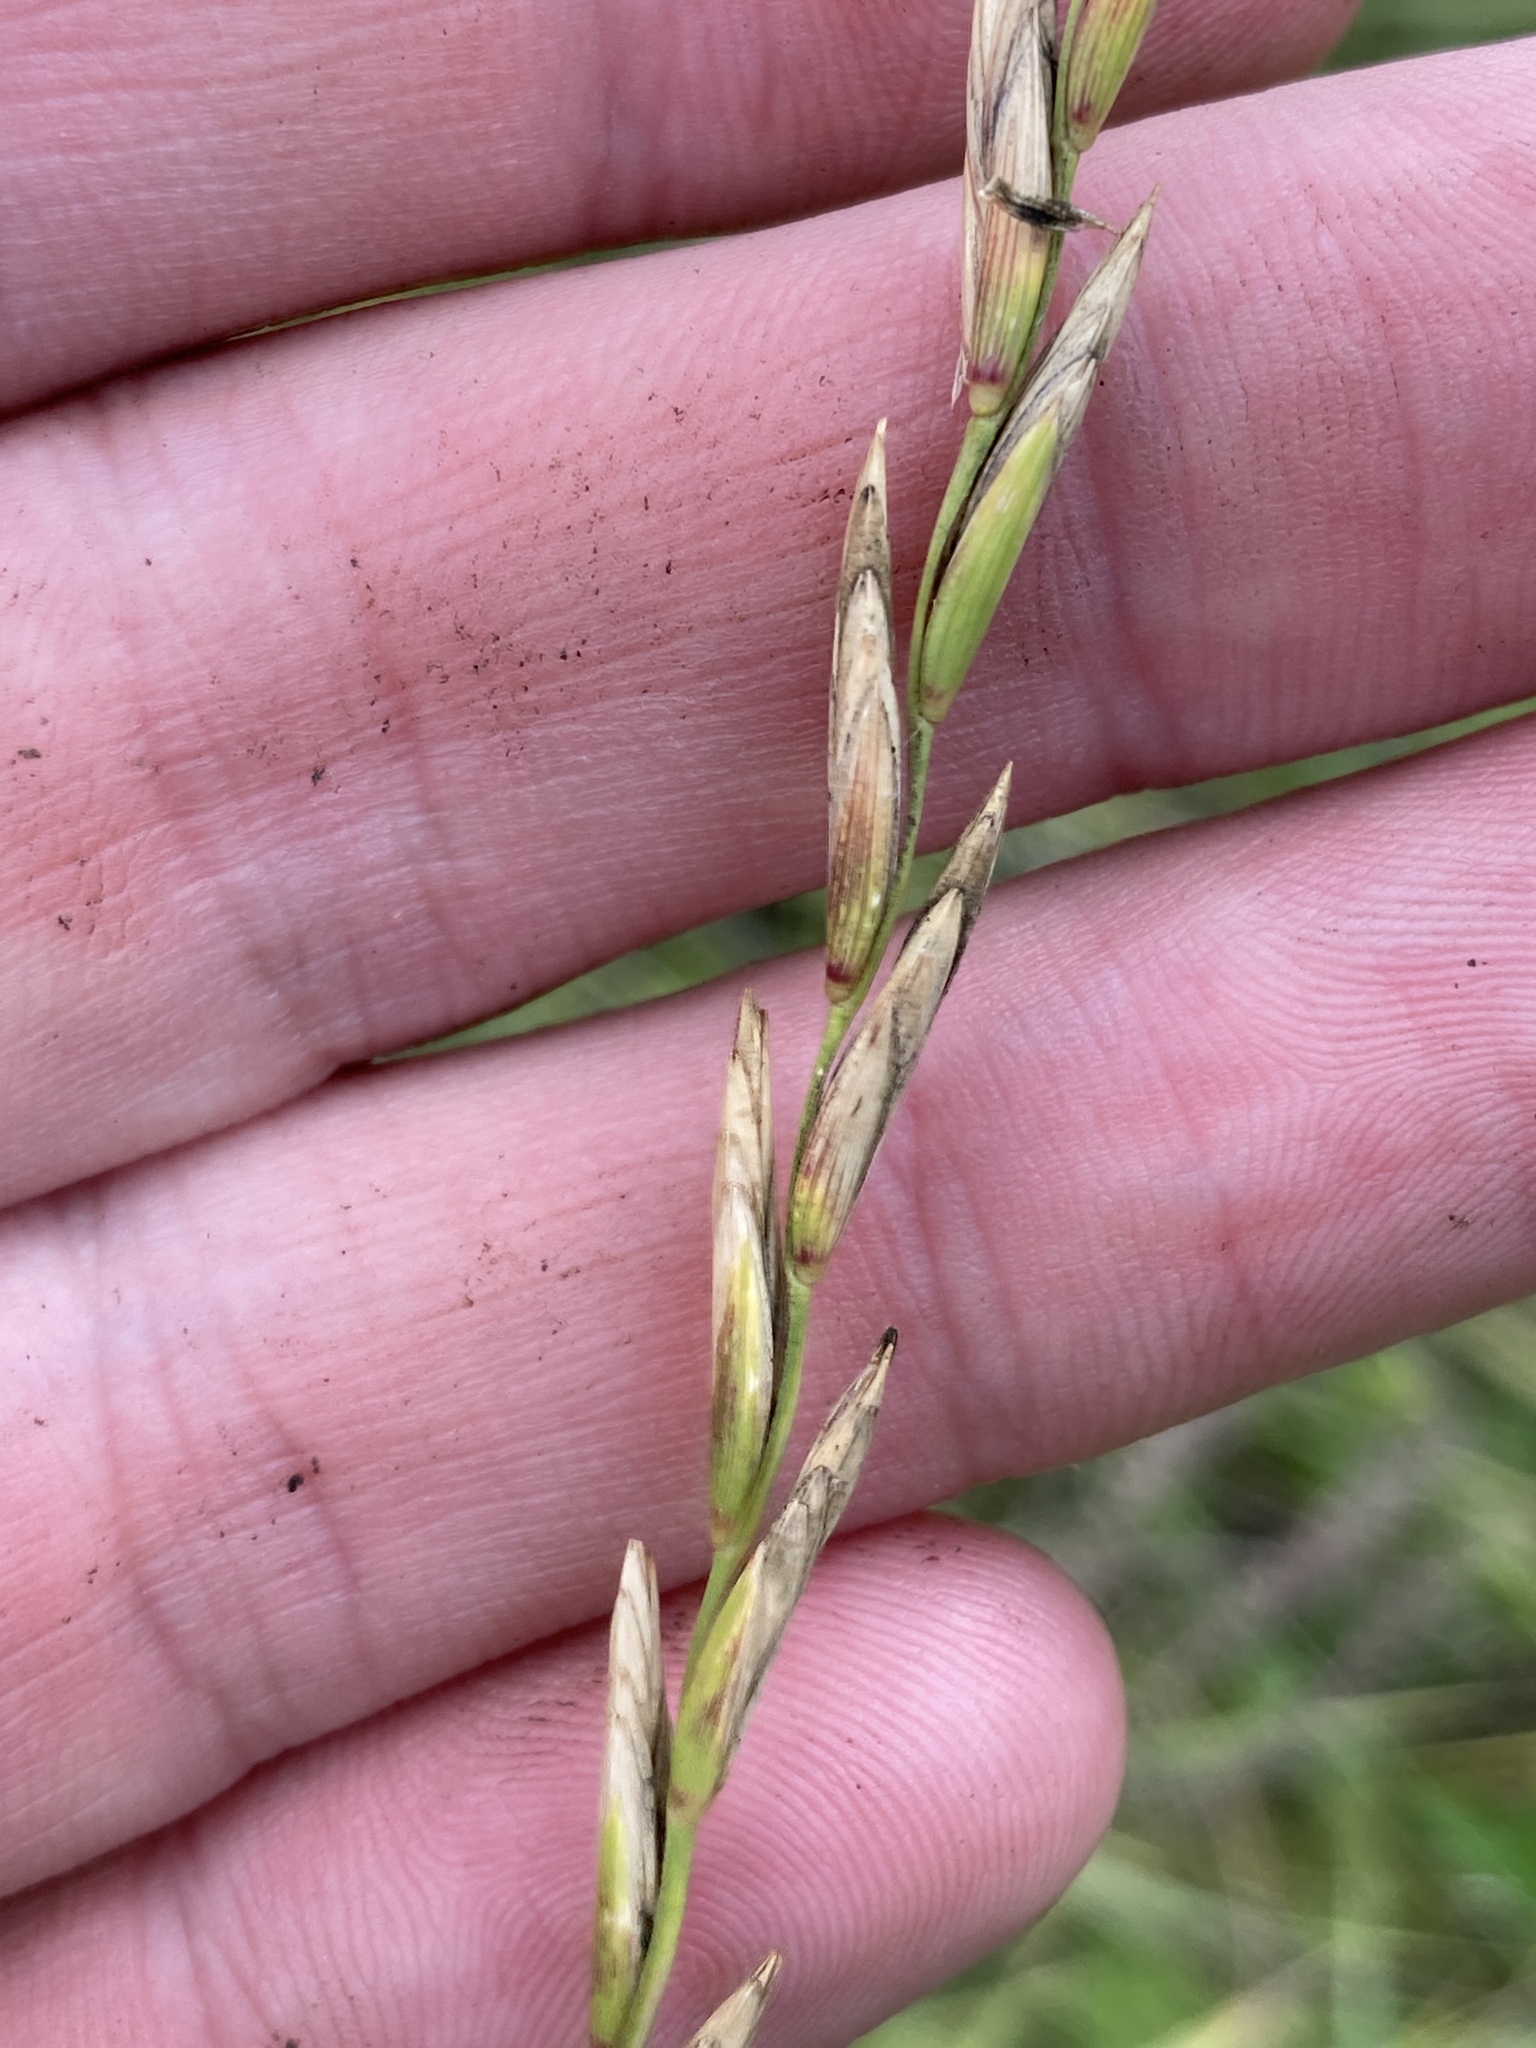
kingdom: Plantae
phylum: Tracheophyta
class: Liliopsida
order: Poales
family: Poaceae
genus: Thinopyrum
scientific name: Thinopyrum intermedium
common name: Intermediate wheatgrass
